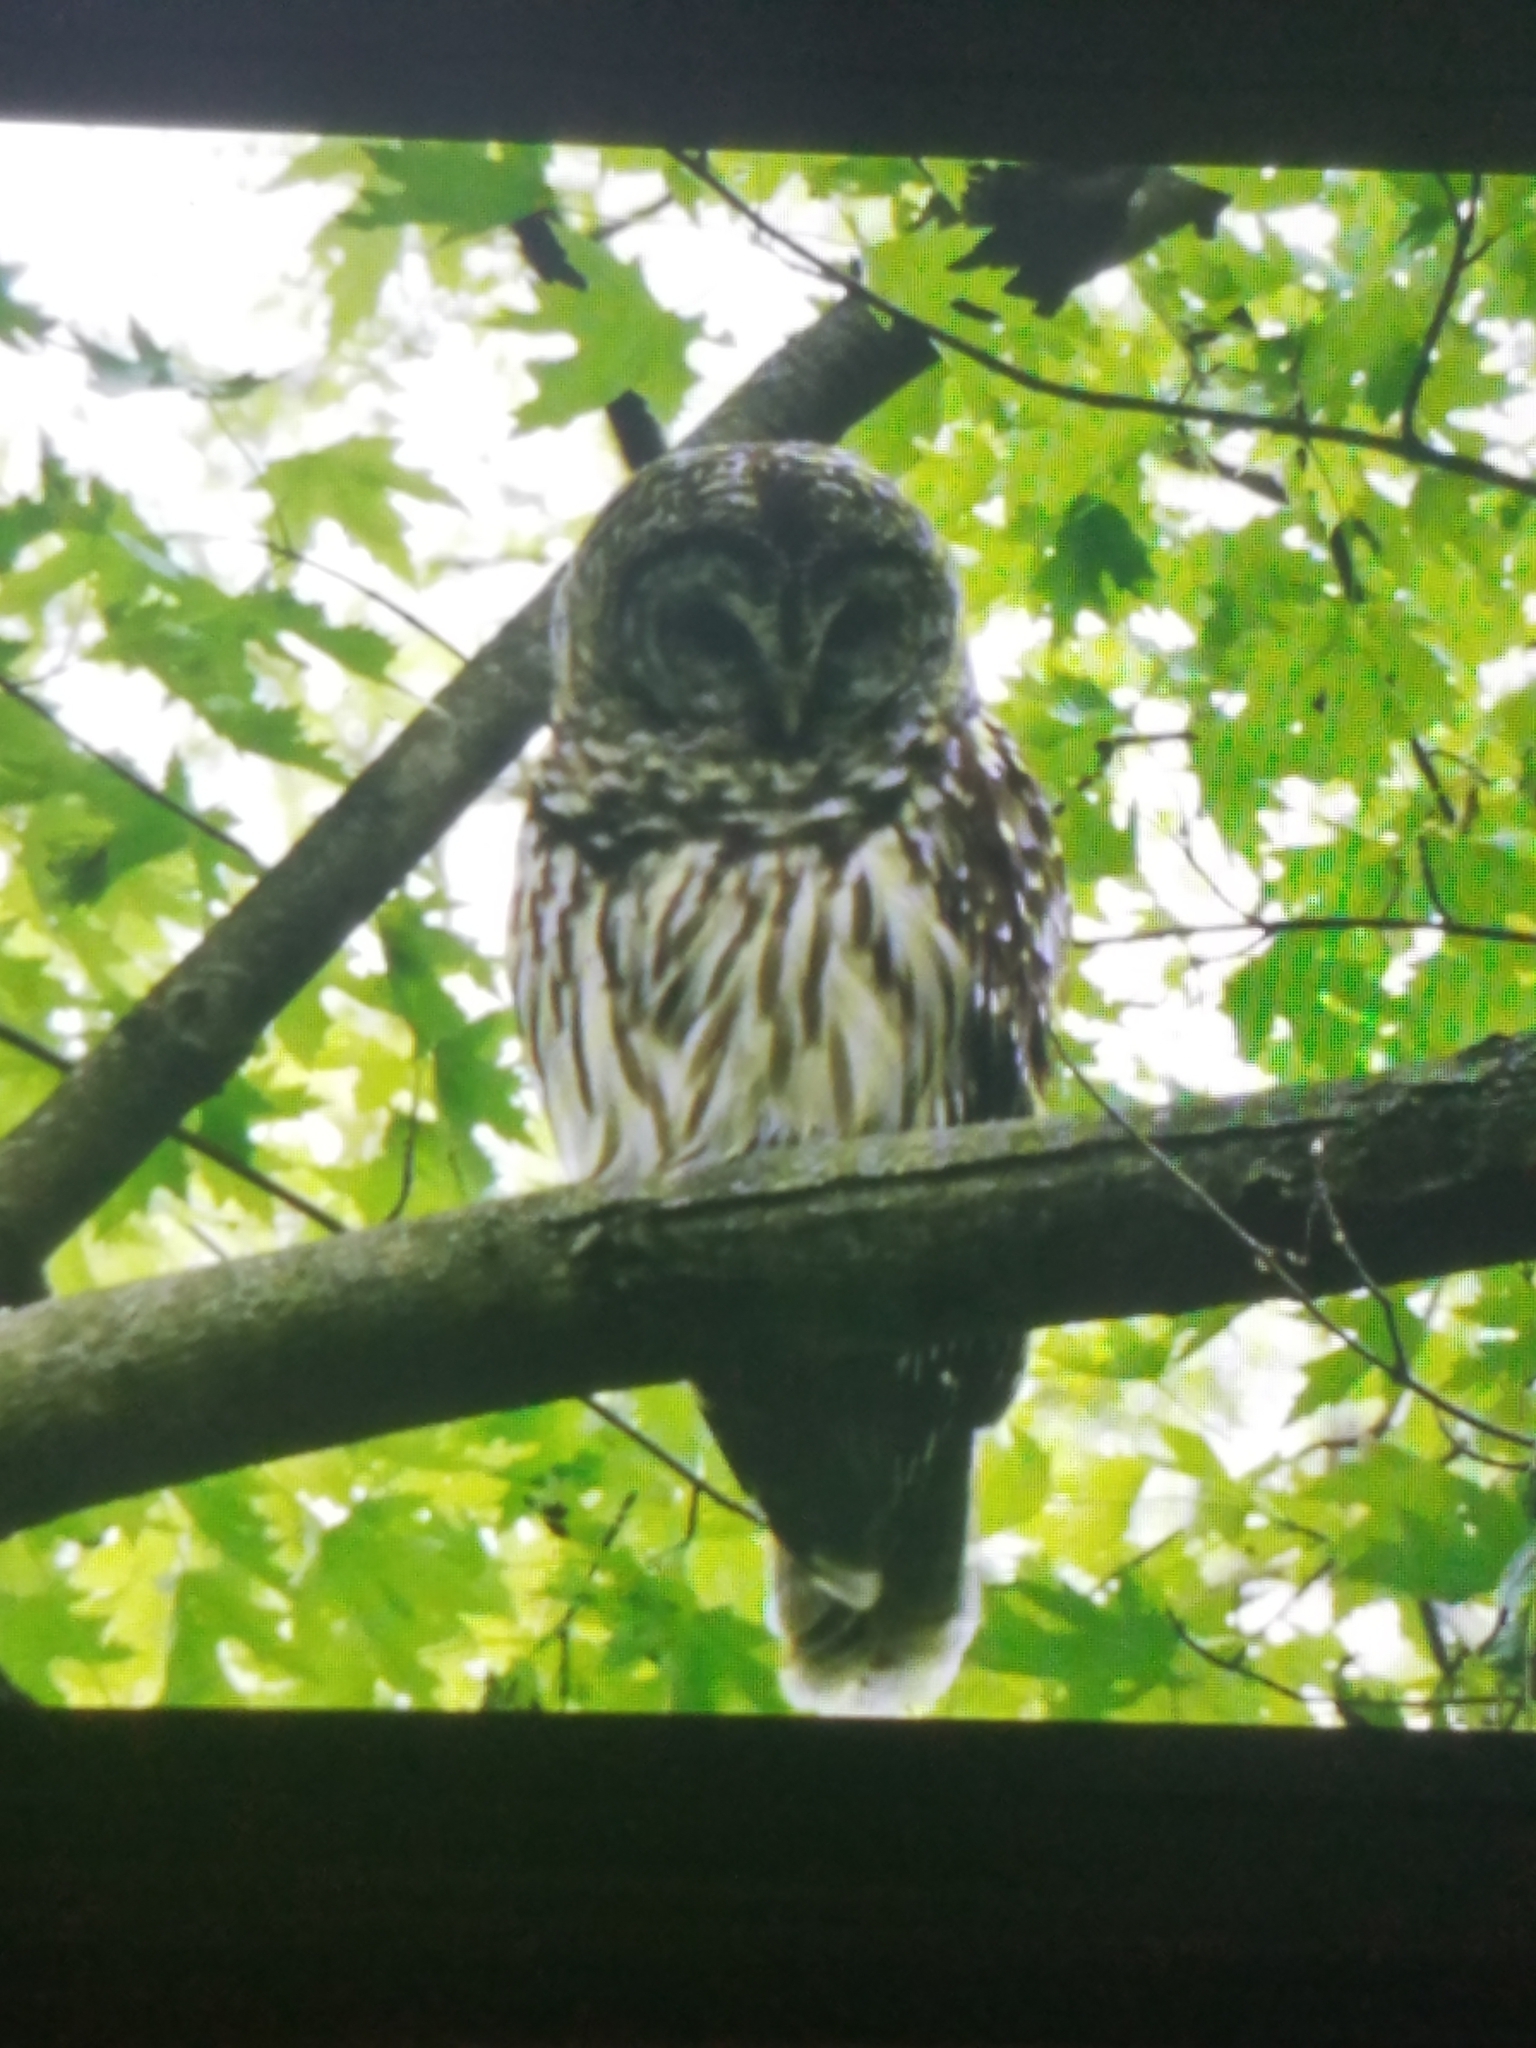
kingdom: Animalia
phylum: Chordata
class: Aves
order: Strigiformes
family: Strigidae
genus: Strix
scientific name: Strix varia
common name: Barred owl
